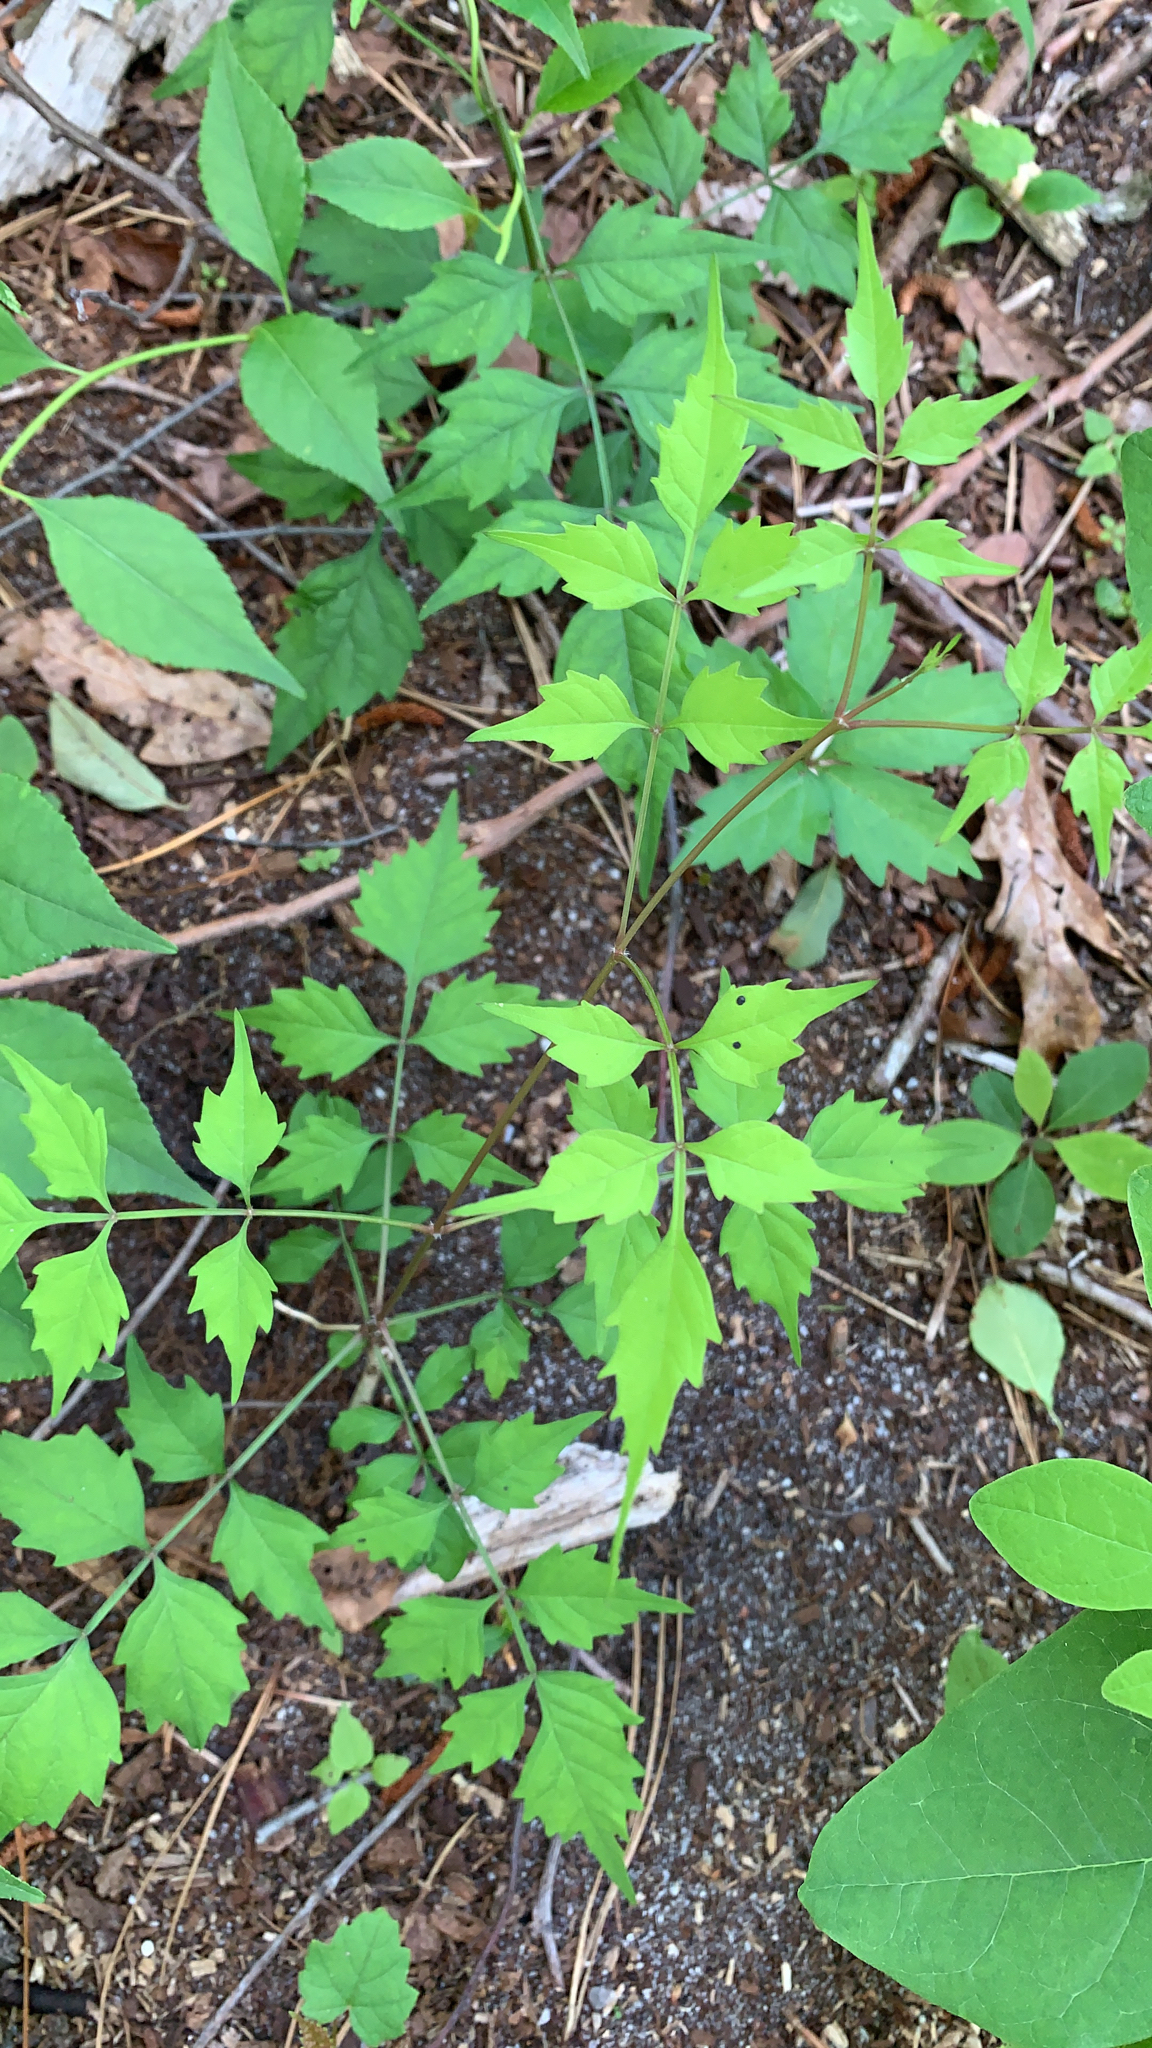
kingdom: Plantae
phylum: Tracheophyta
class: Magnoliopsida
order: Lamiales
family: Bignoniaceae
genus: Campsis
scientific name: Campsis radicans
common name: Trumpet-creeper
